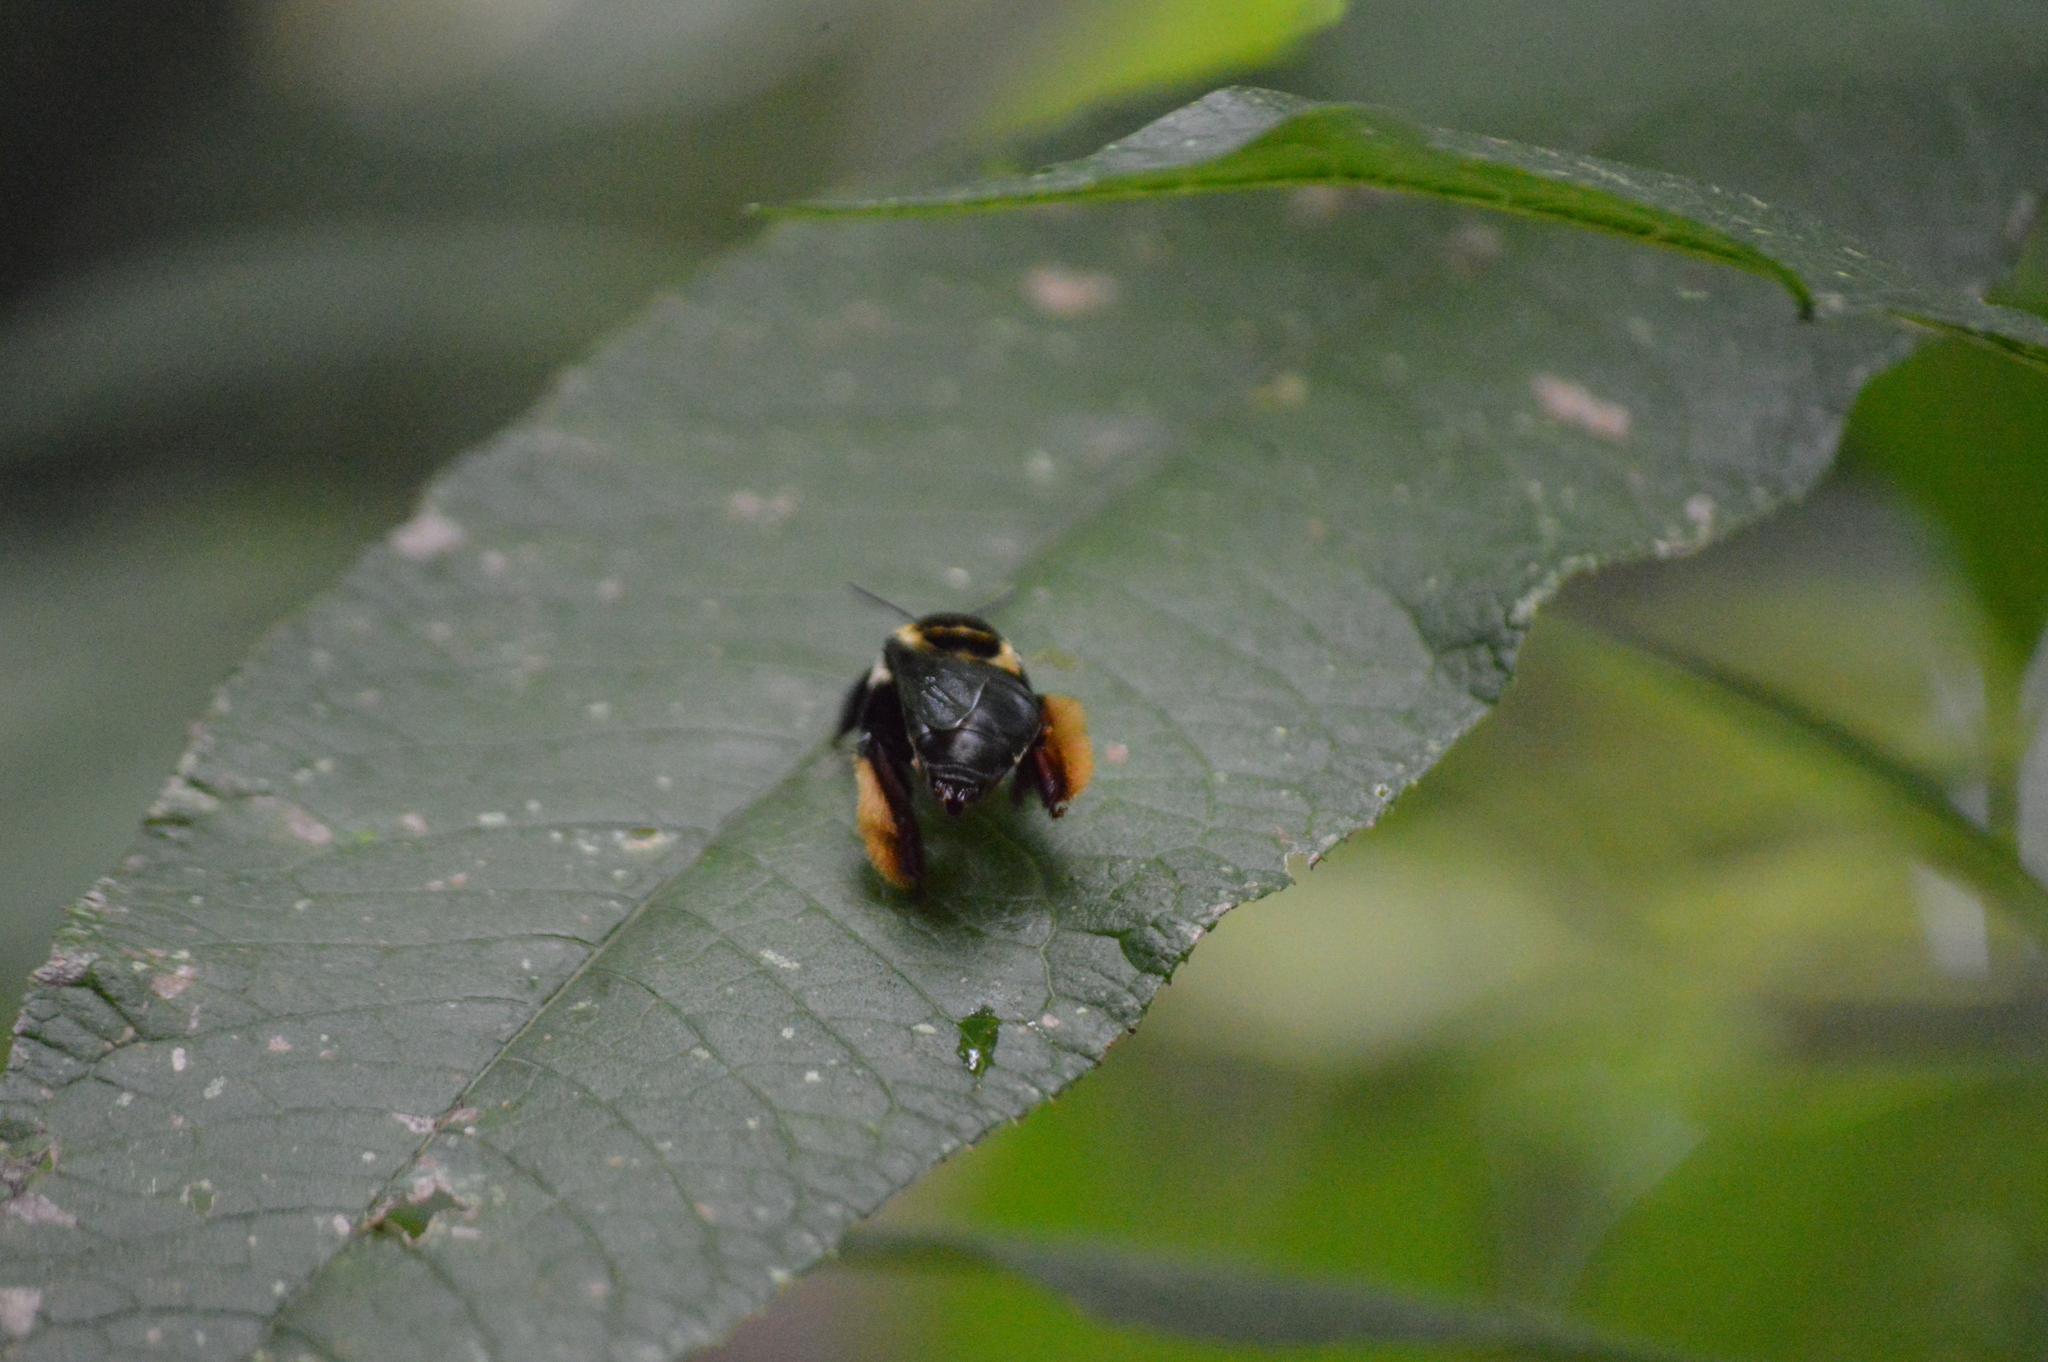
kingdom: Animalia
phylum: Arthropoda
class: Insecta
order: Hymenoptera
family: Apidae
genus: Centris
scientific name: Centris mocsaryi
